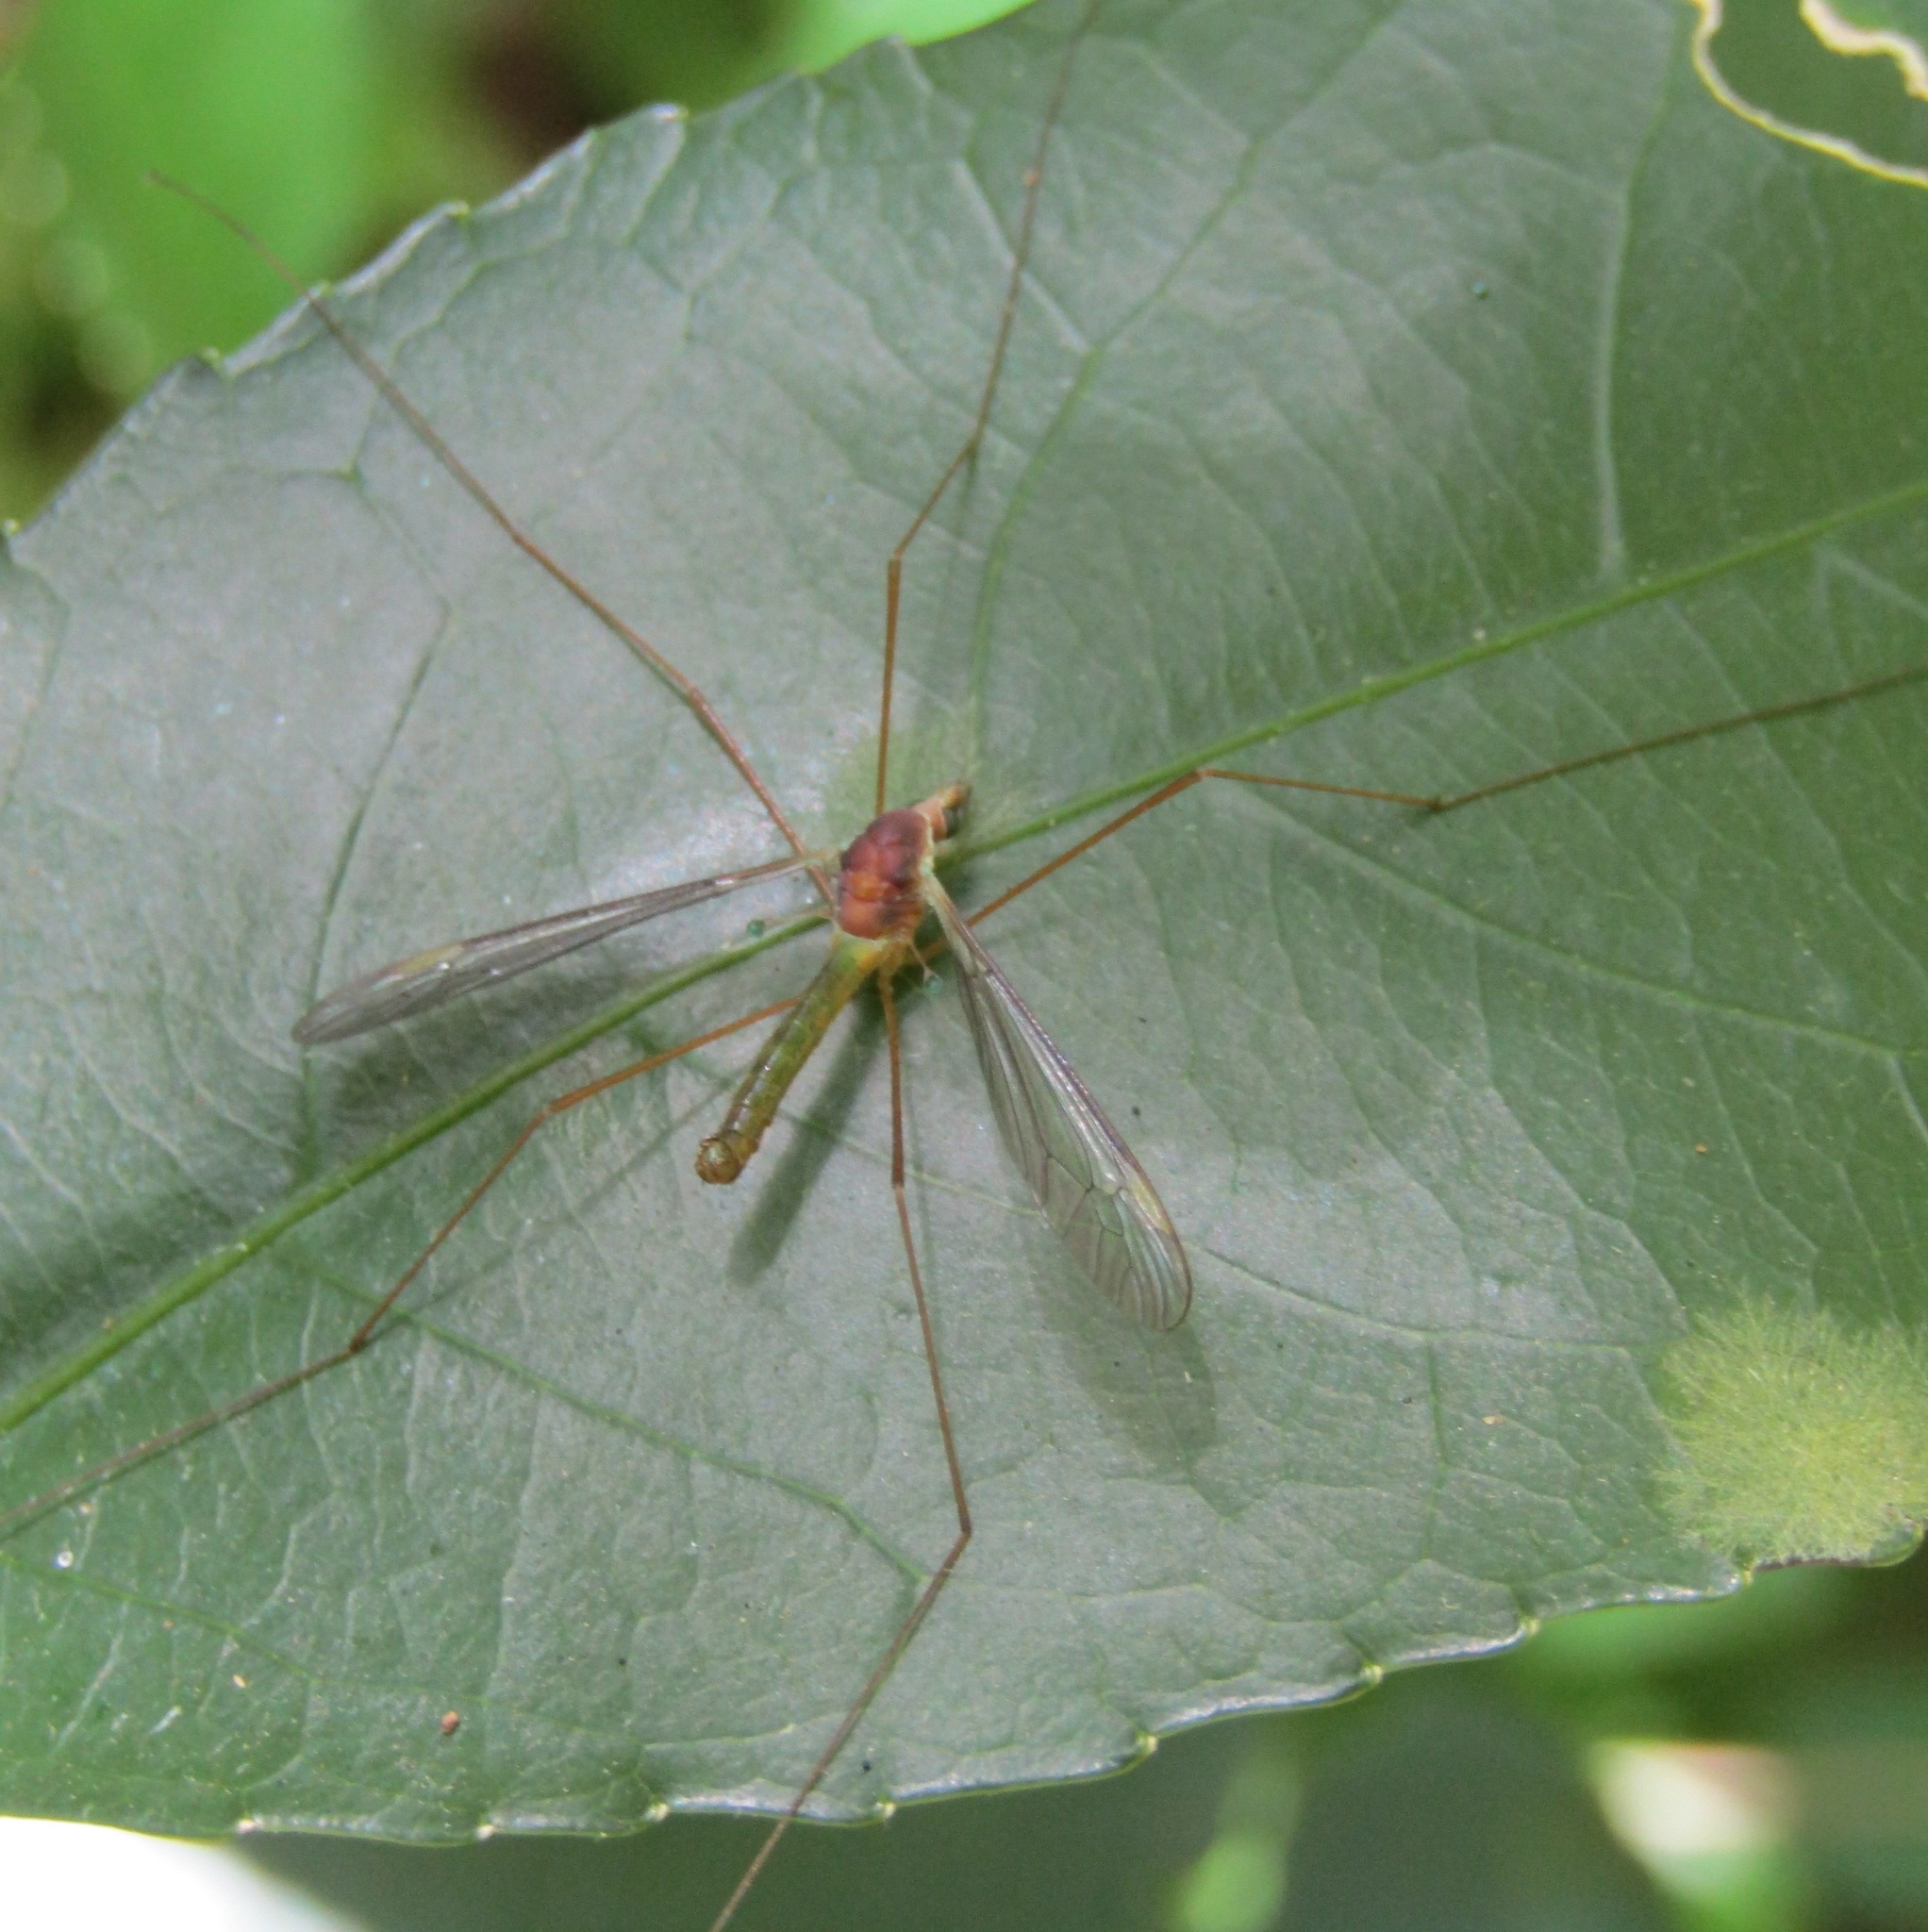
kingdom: Animalia
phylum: Arthropoda
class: Insecta
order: Diptera
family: Tipulidae
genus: Leptotarsus
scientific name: Leptotarsus pallidistigma
